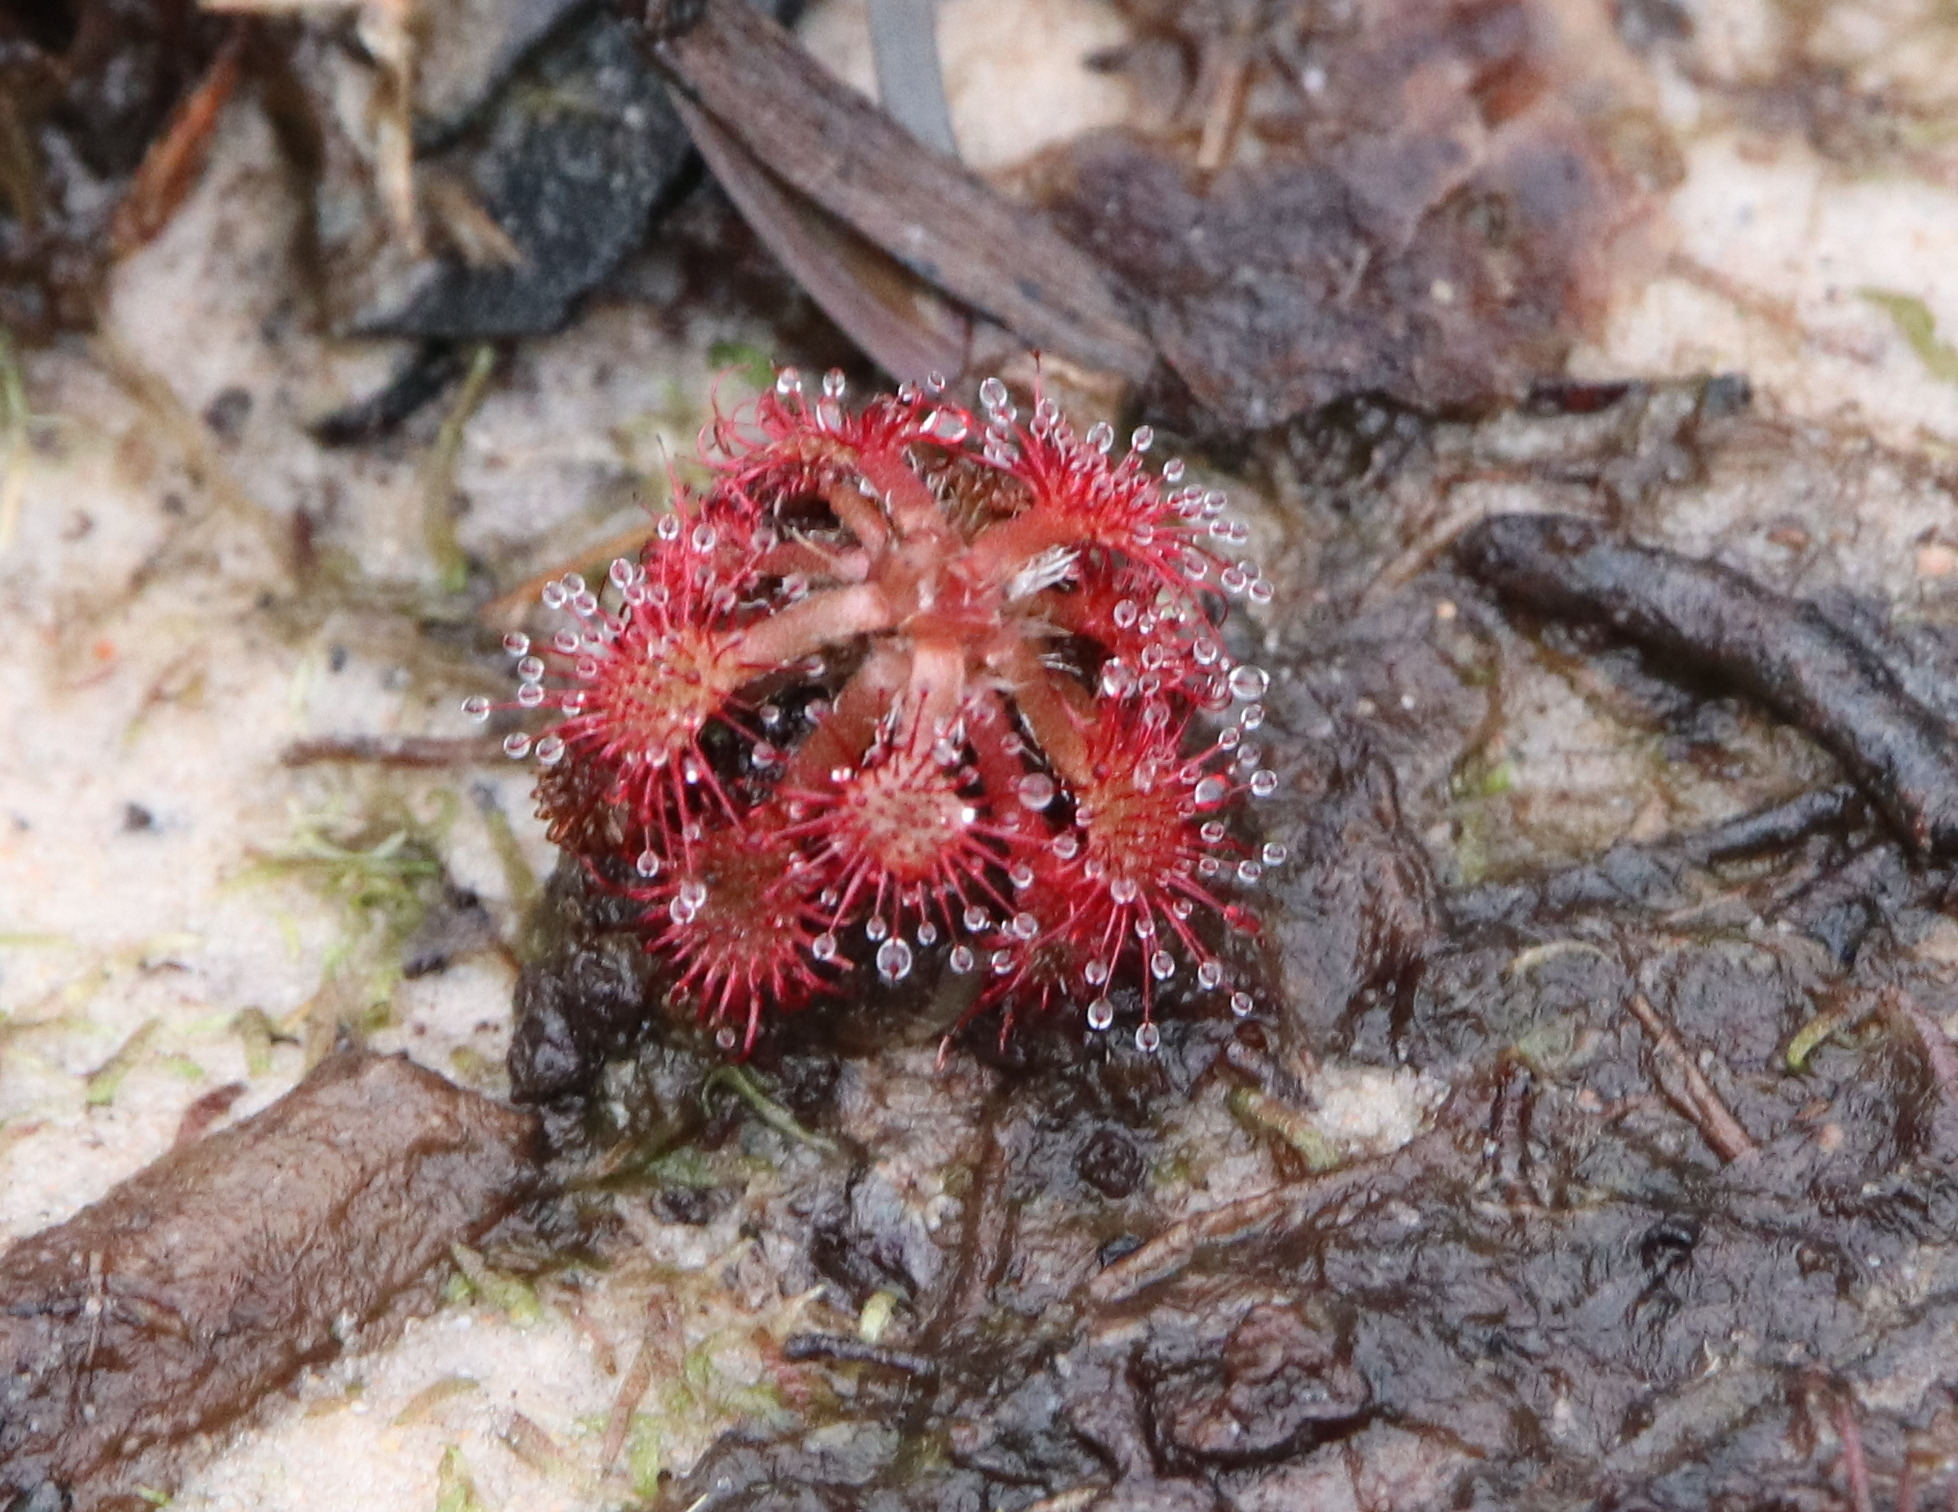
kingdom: Plantae
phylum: Tracheophyta
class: Magnoliopsida
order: Caryophyllales
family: Droseraceae
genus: Drosera
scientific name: Drosera capillaris
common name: Pink sundew
